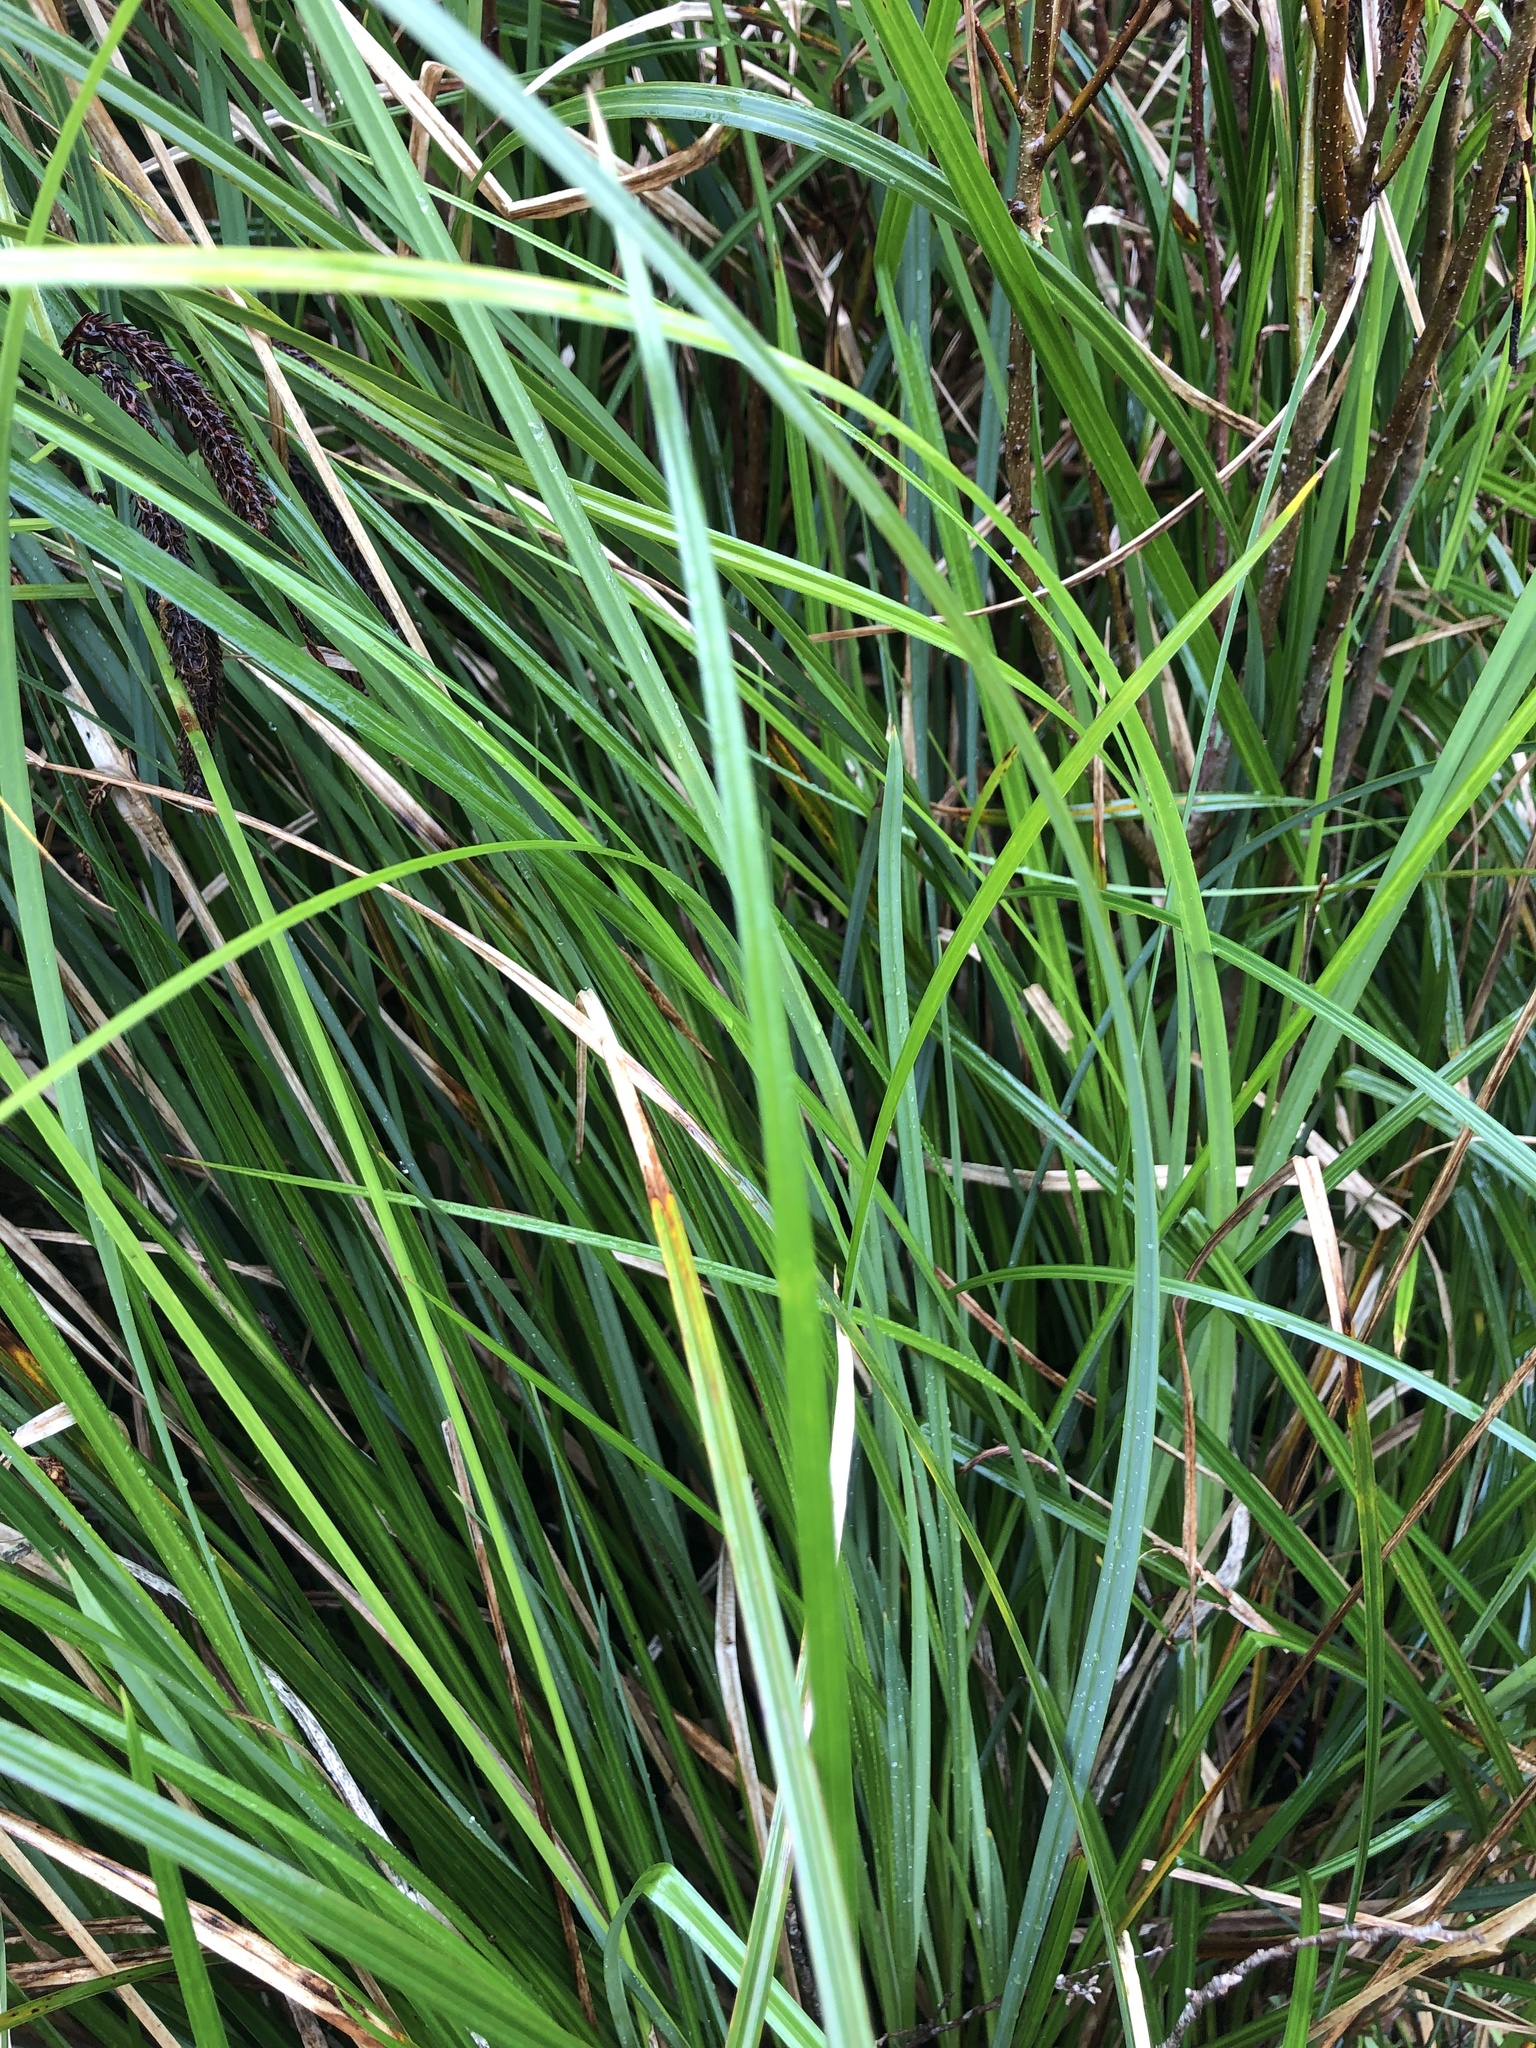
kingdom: Plantae
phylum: Tracheophyta
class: Liliopsida
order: Poales
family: Cyperaceae
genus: Carex
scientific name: Carex obnupta
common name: Slough sedge
